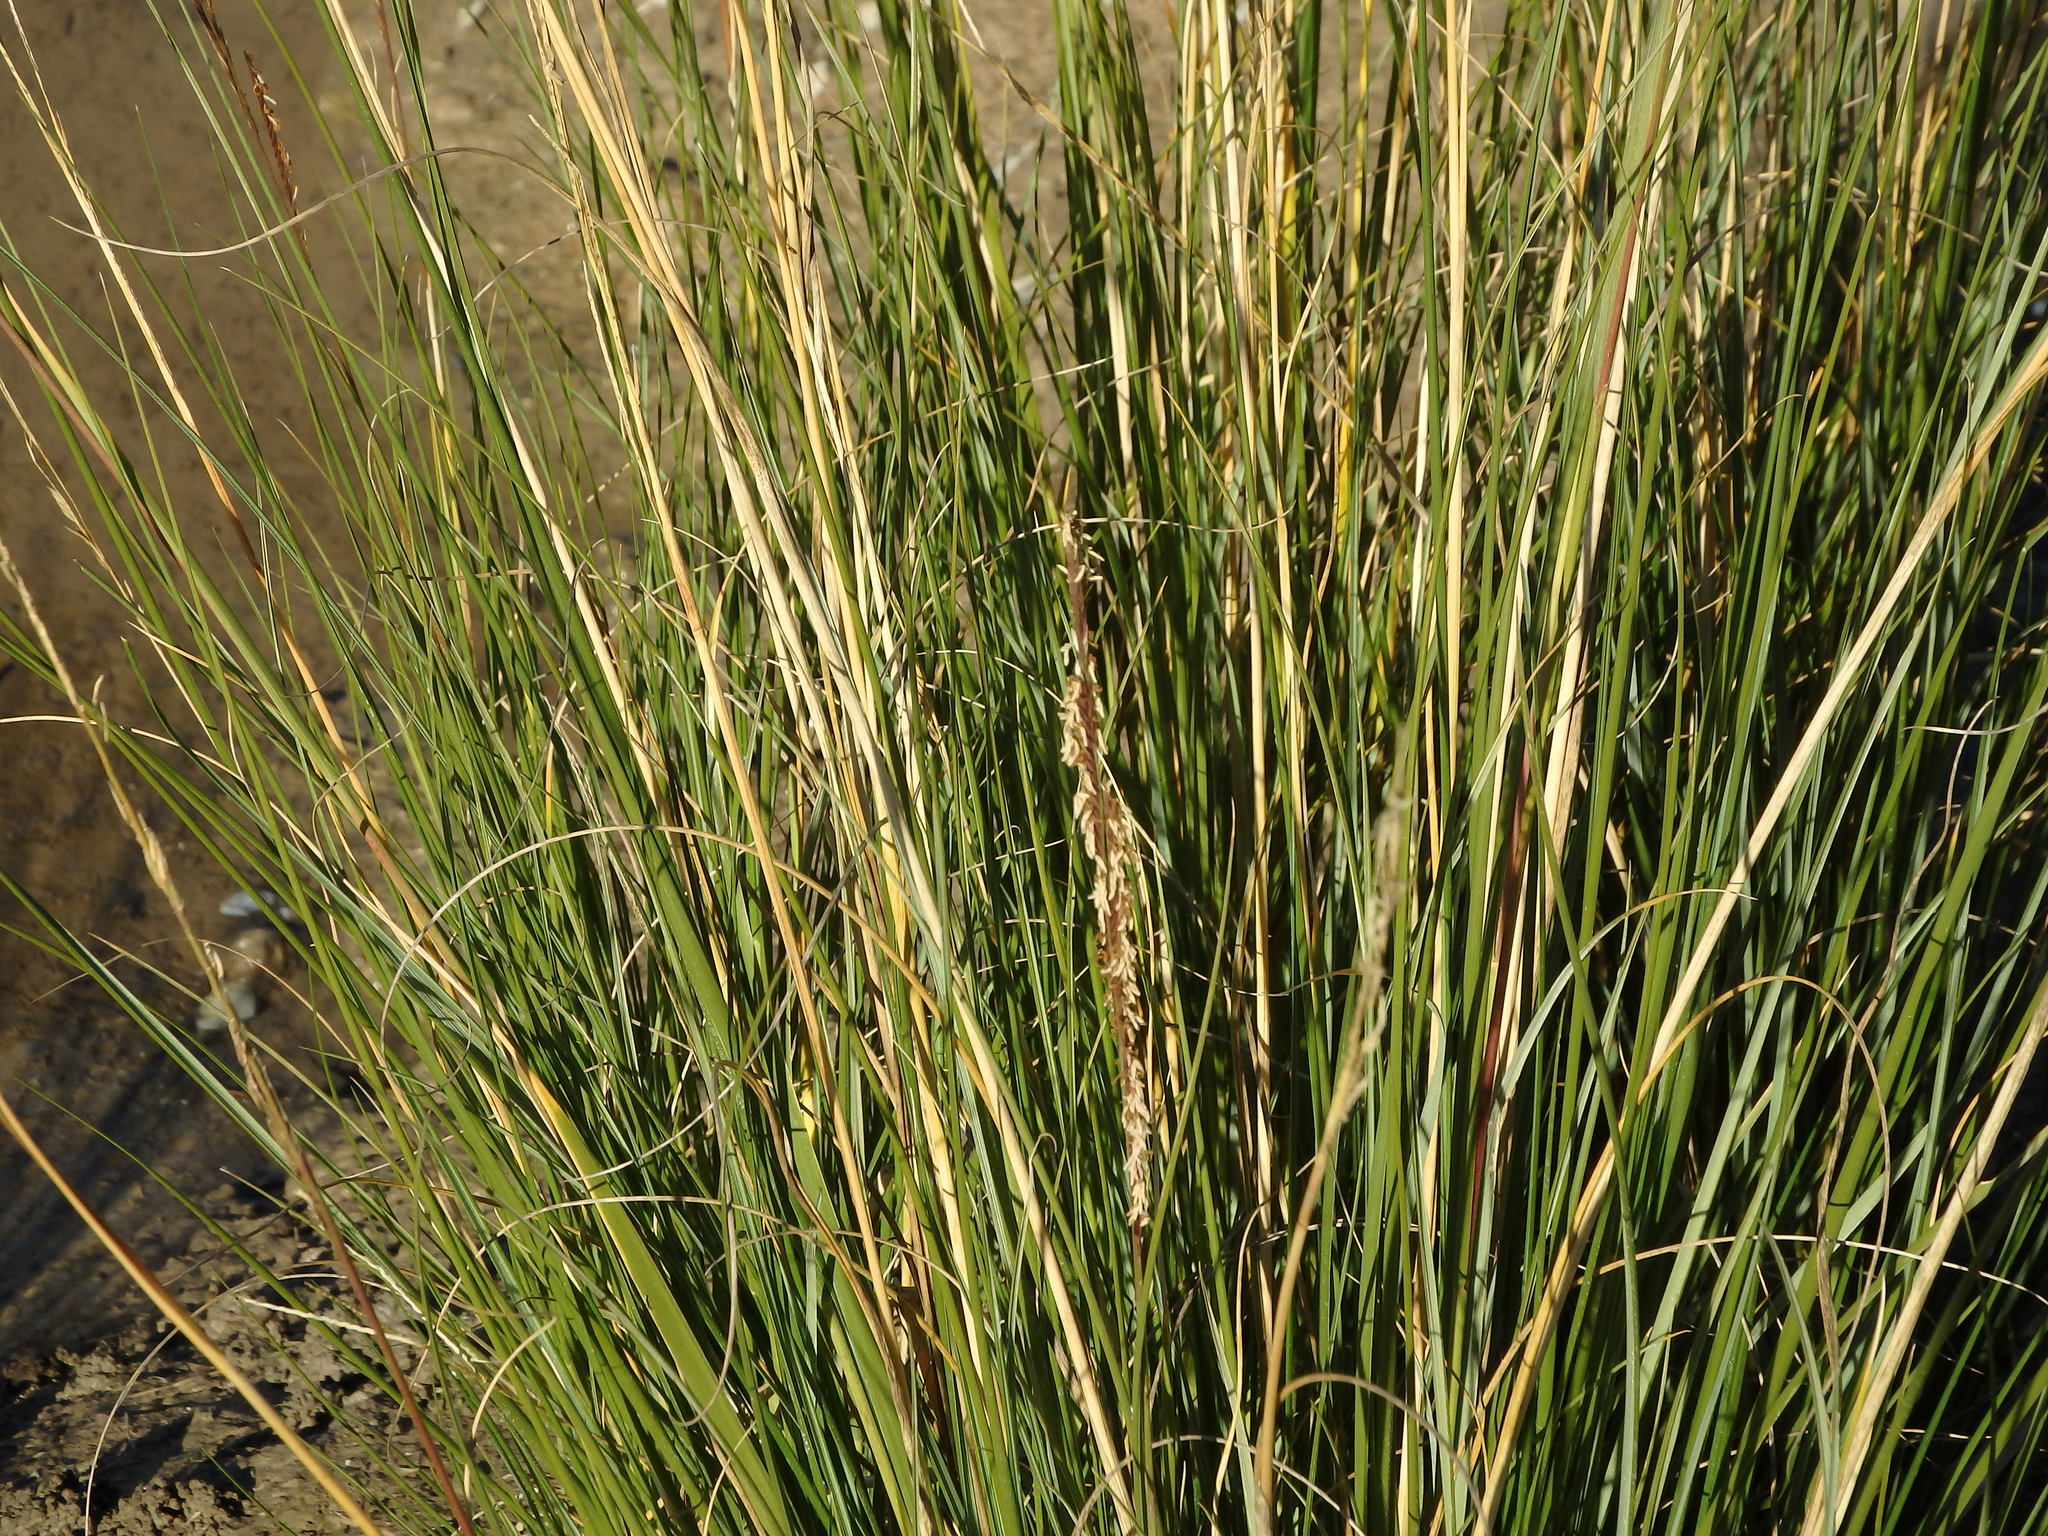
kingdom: Plantae
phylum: Tracheophyta
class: Liliopsida
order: Poales
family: Poaceae
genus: Sporobolus
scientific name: Sporobolus montevidensis
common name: Montevideo dropseed
